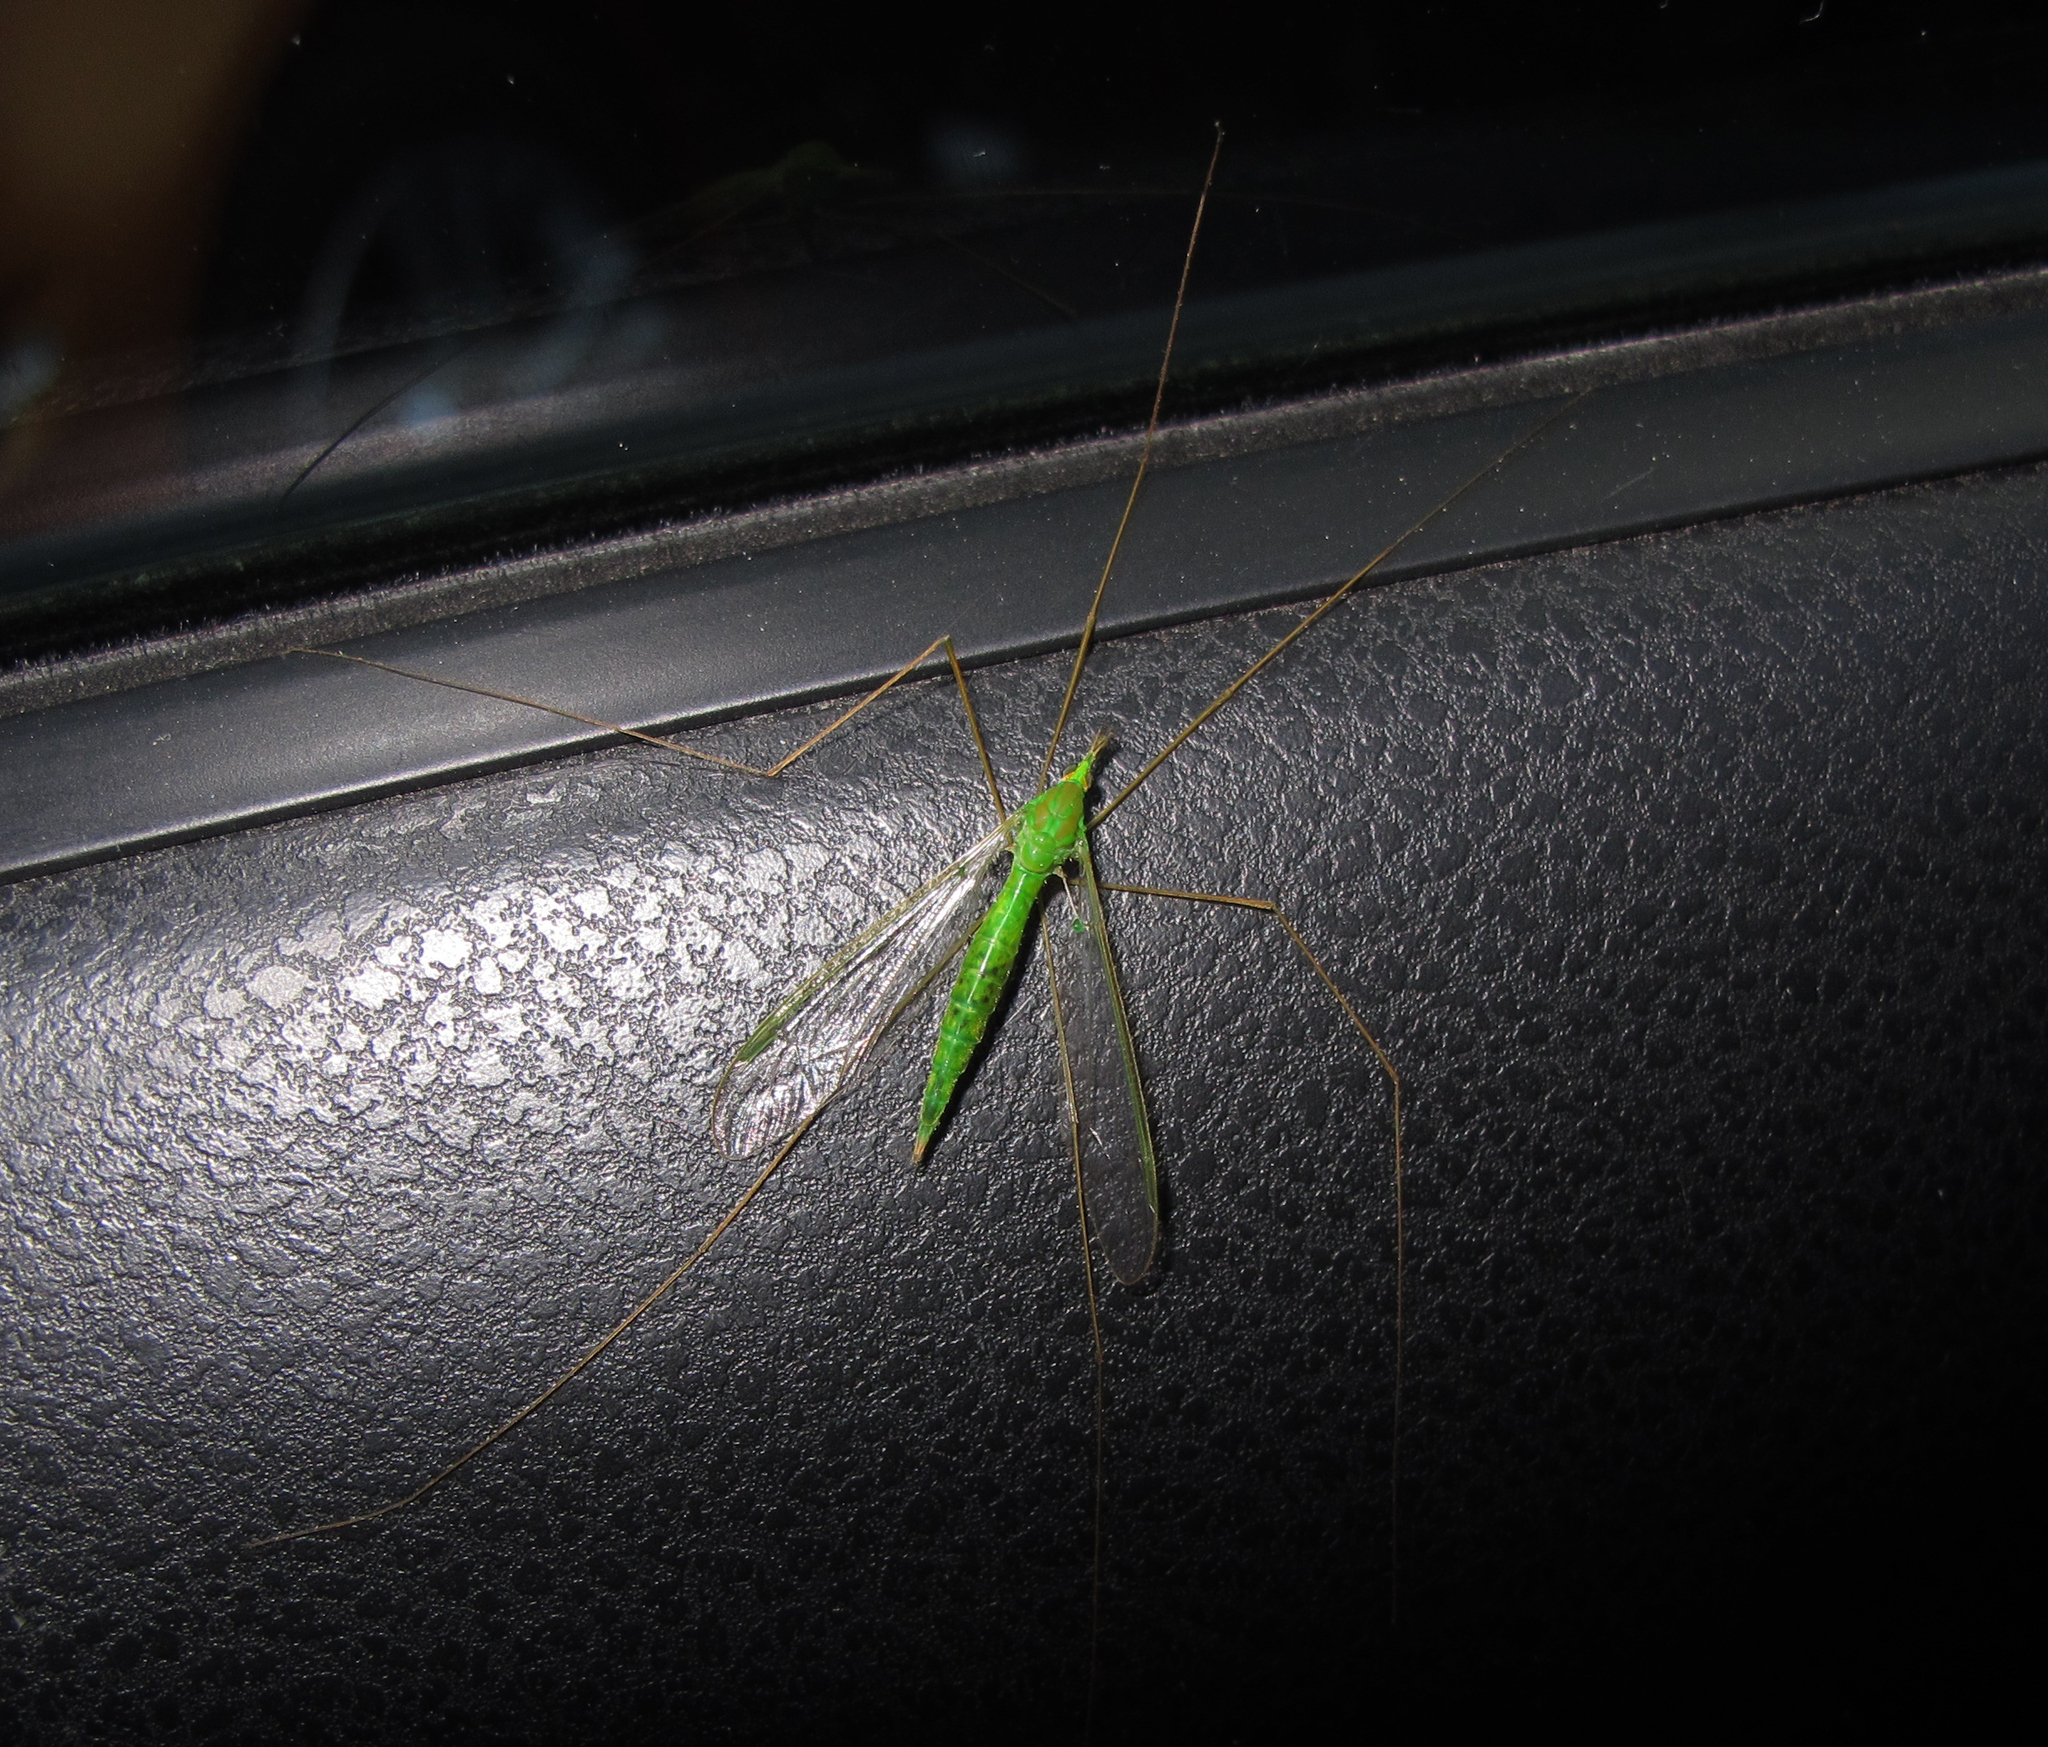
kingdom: Animalia
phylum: Arthropoda
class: Insecta
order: Diptera
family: Tipulidae
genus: Leptotarsus
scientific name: Leptotarsus virescens
